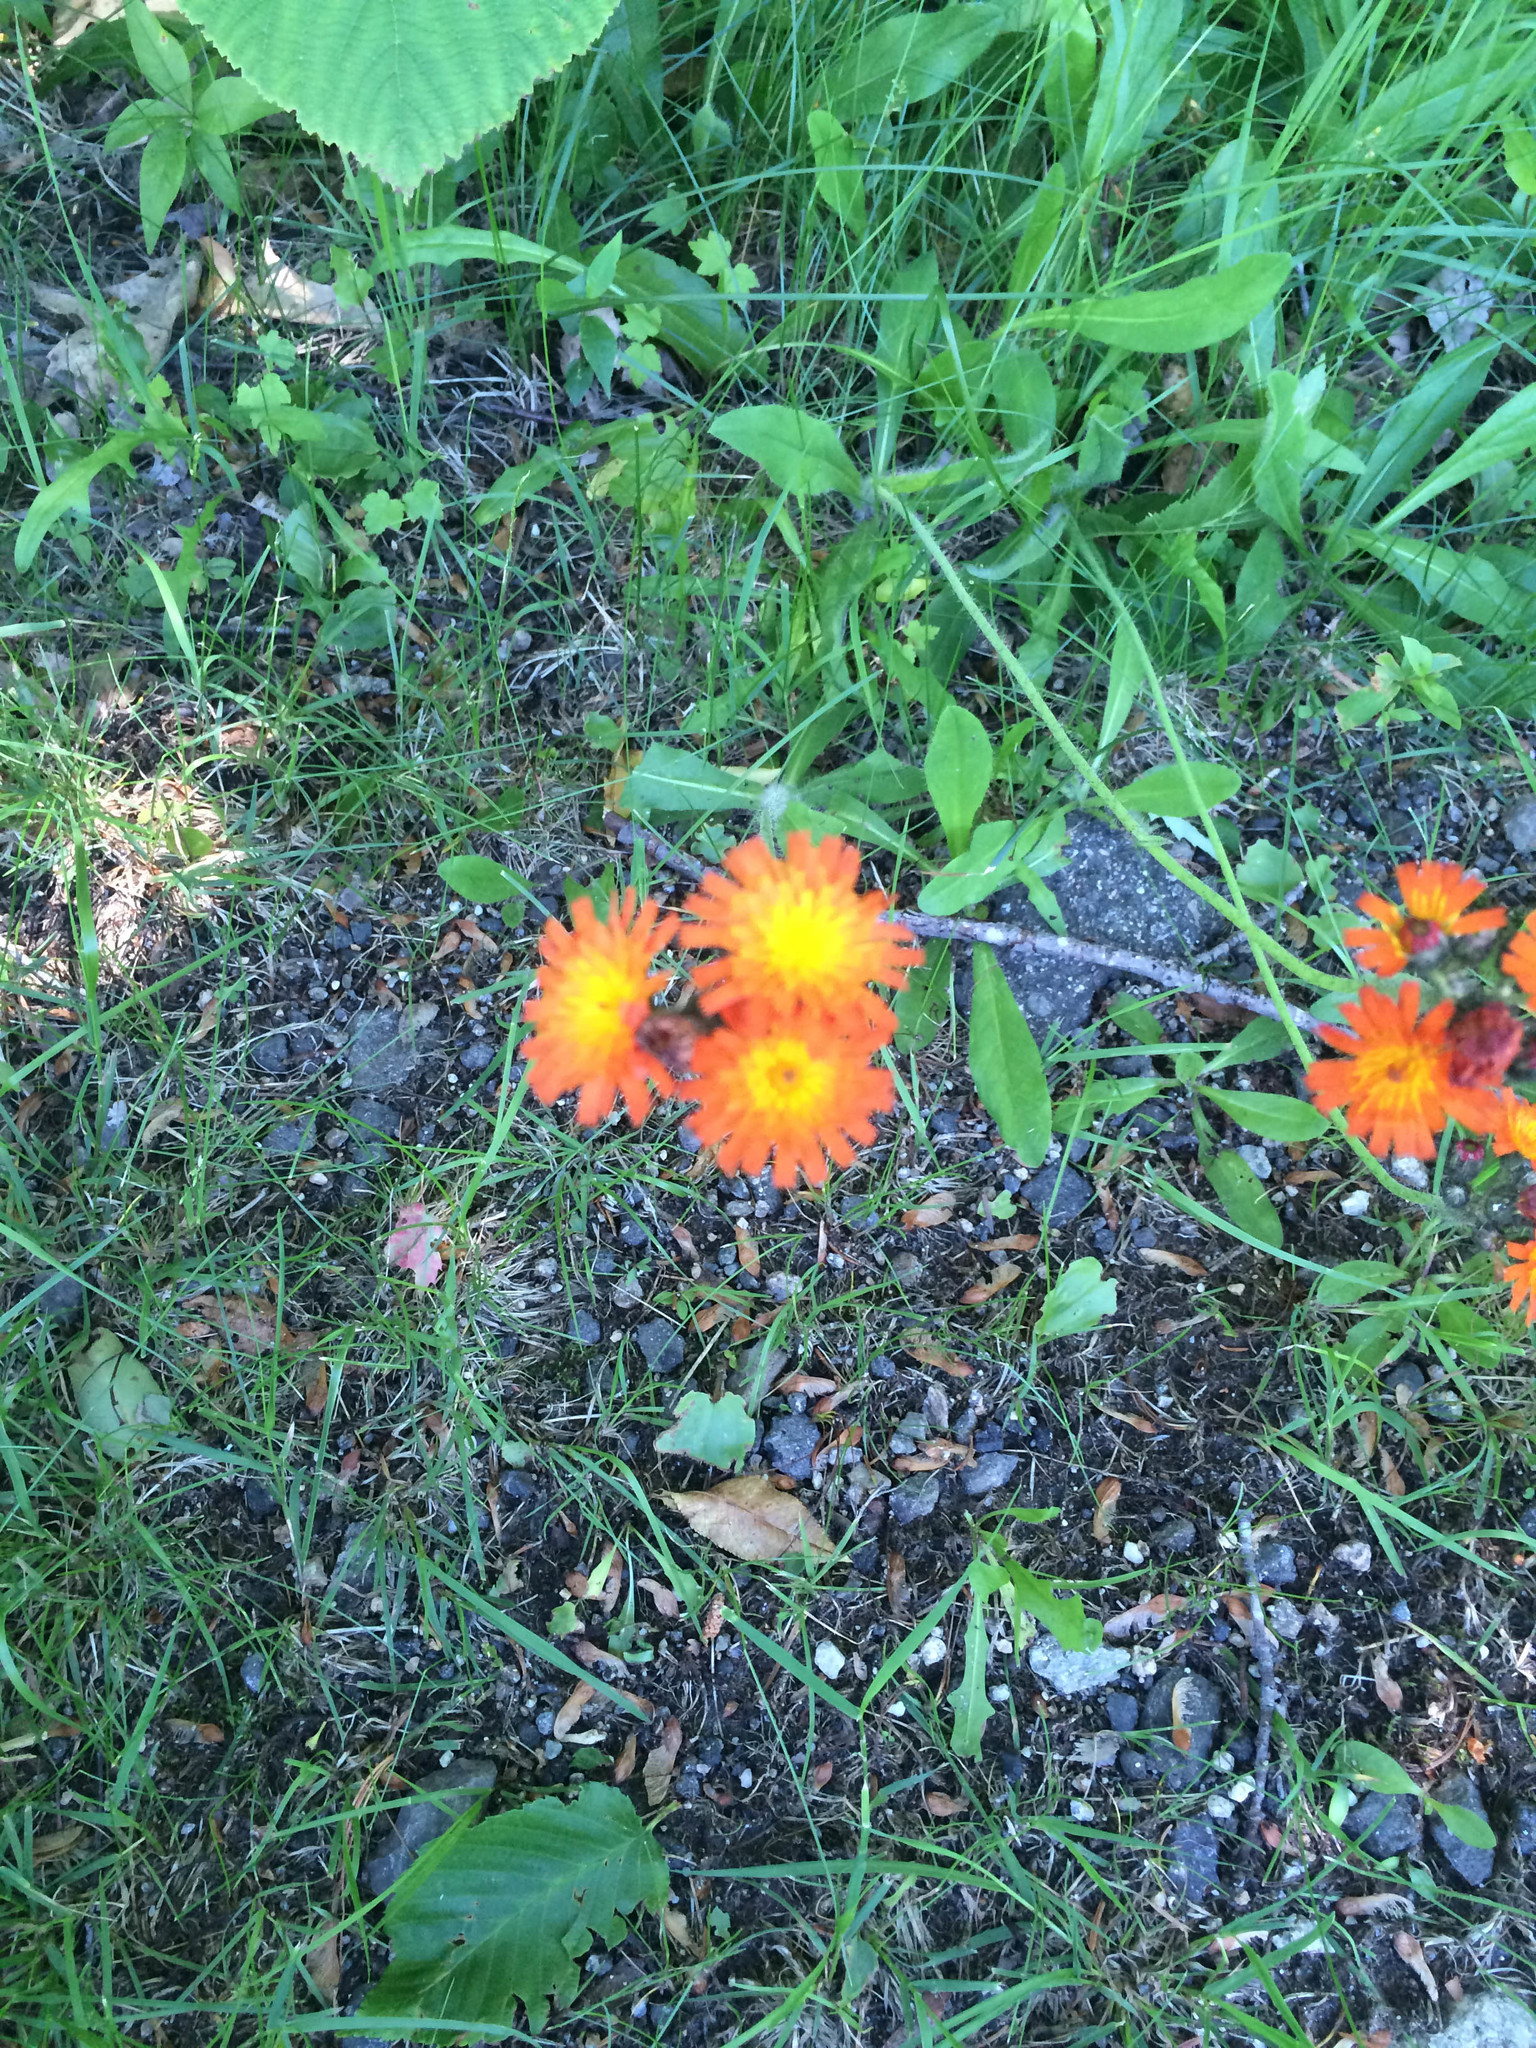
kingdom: Plantae
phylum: Tracheophyta
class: Magnoliopsida
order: Asterales
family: Asteraceae
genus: Pilosella
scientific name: Pilosella aurantiaca
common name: Fox-and-cubs
